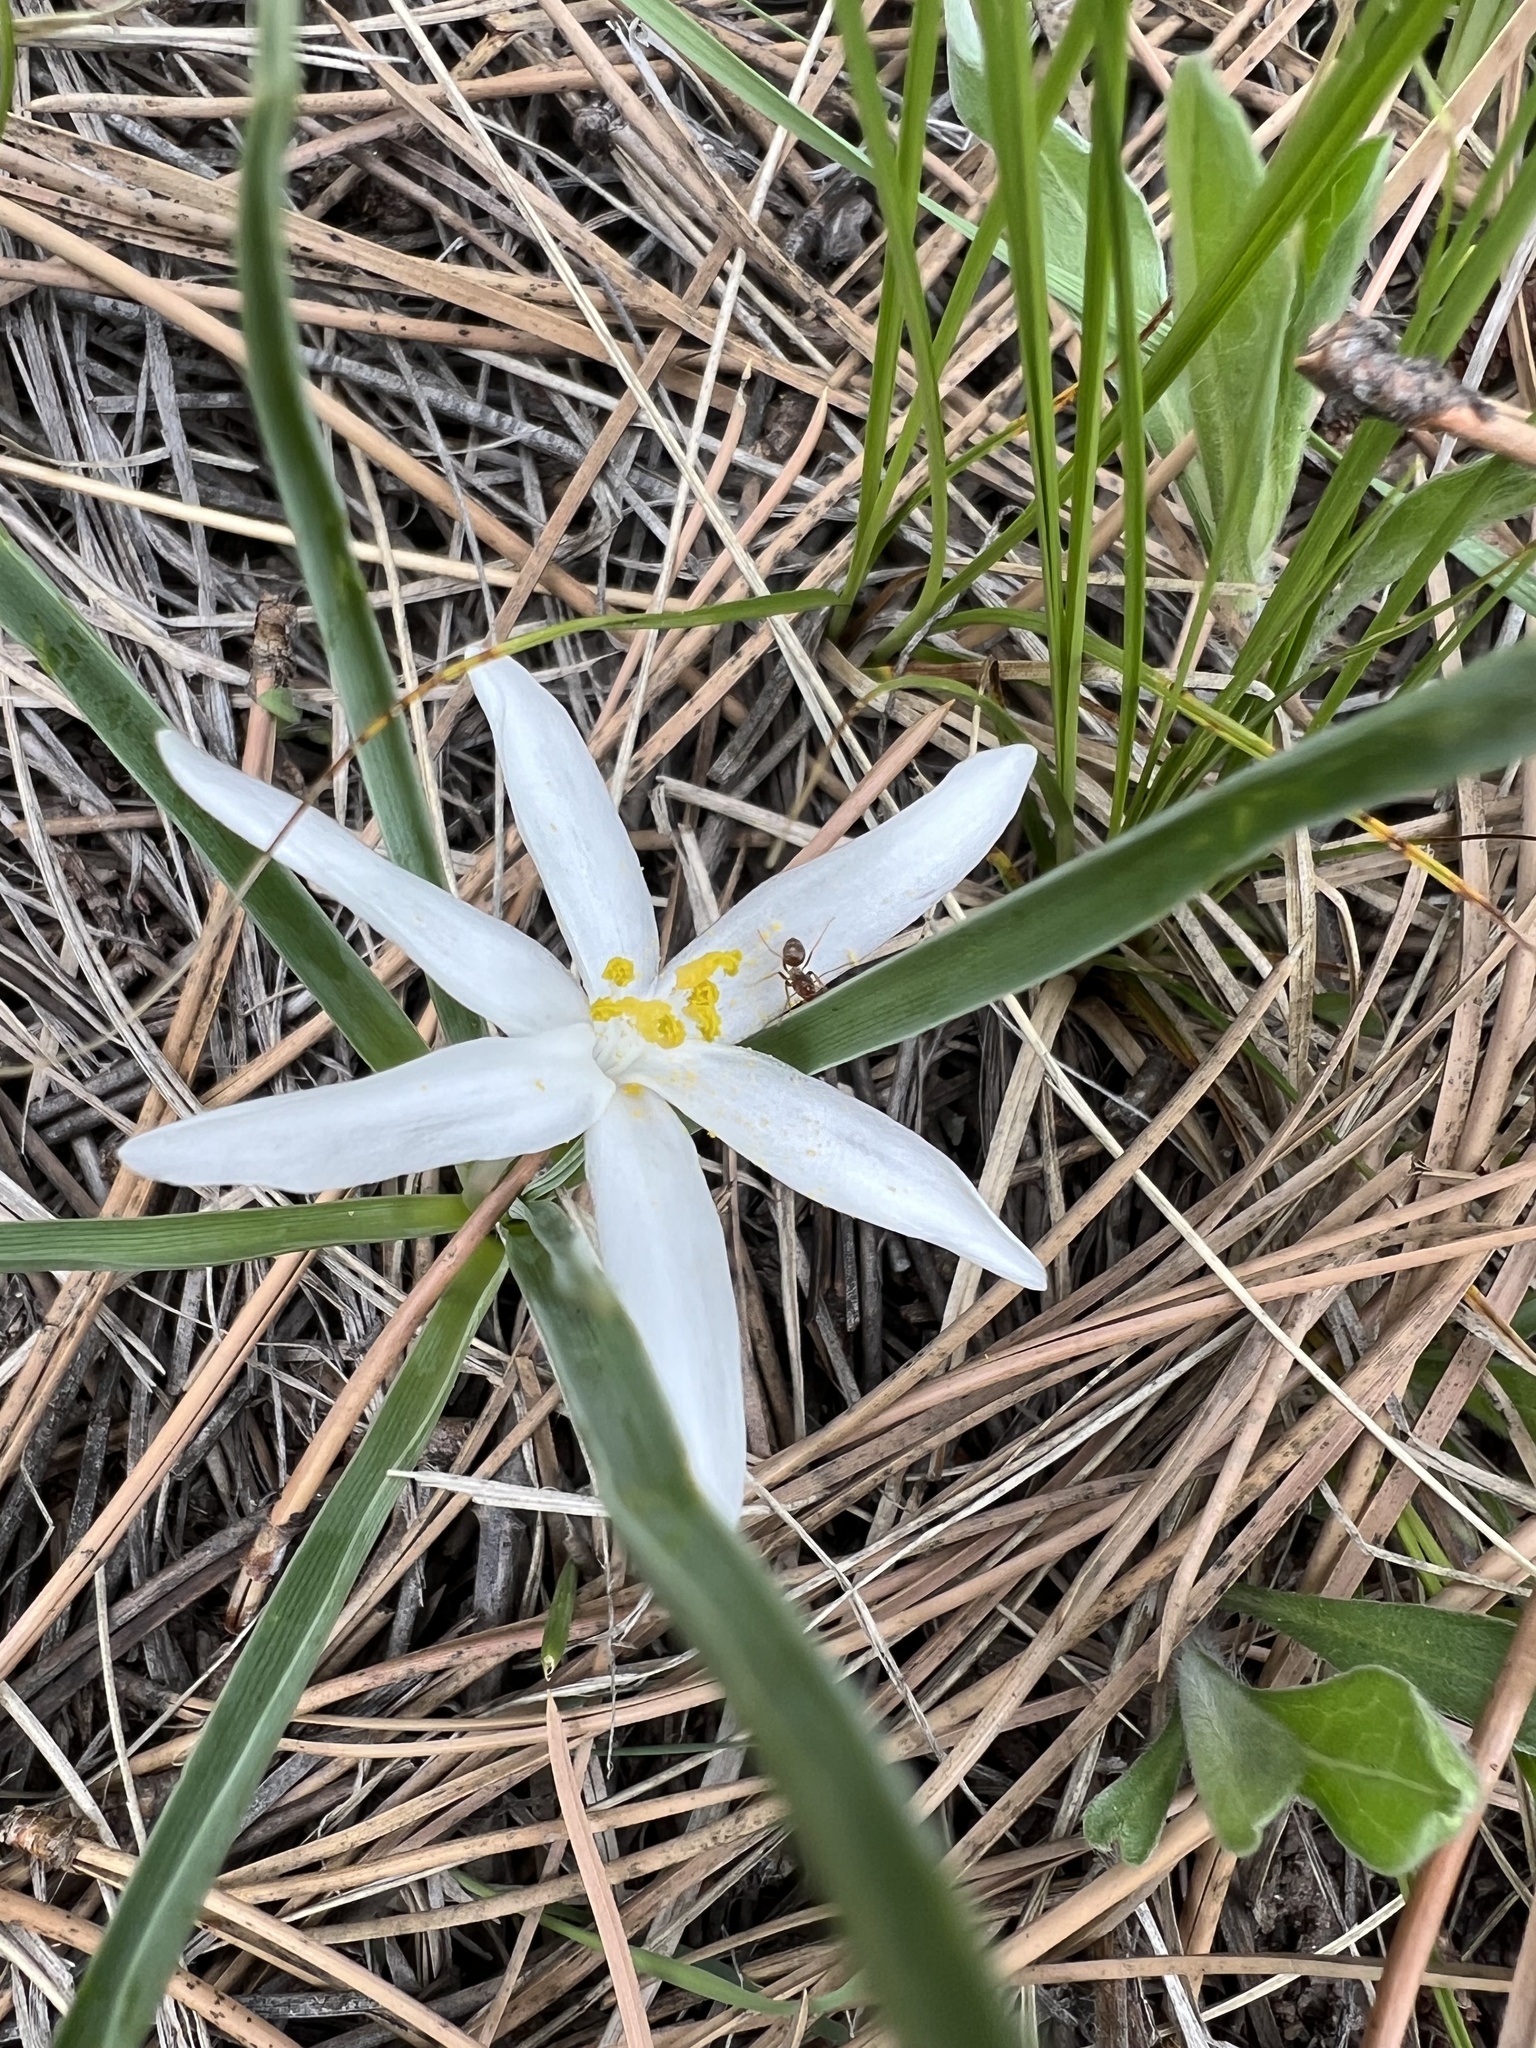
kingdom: Plantae
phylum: Tracheophyta
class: Liliopsida
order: Asparagales
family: Asparagaceae
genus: Leucocrinum
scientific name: Leucocrinum montanum
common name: Mountain-lily
